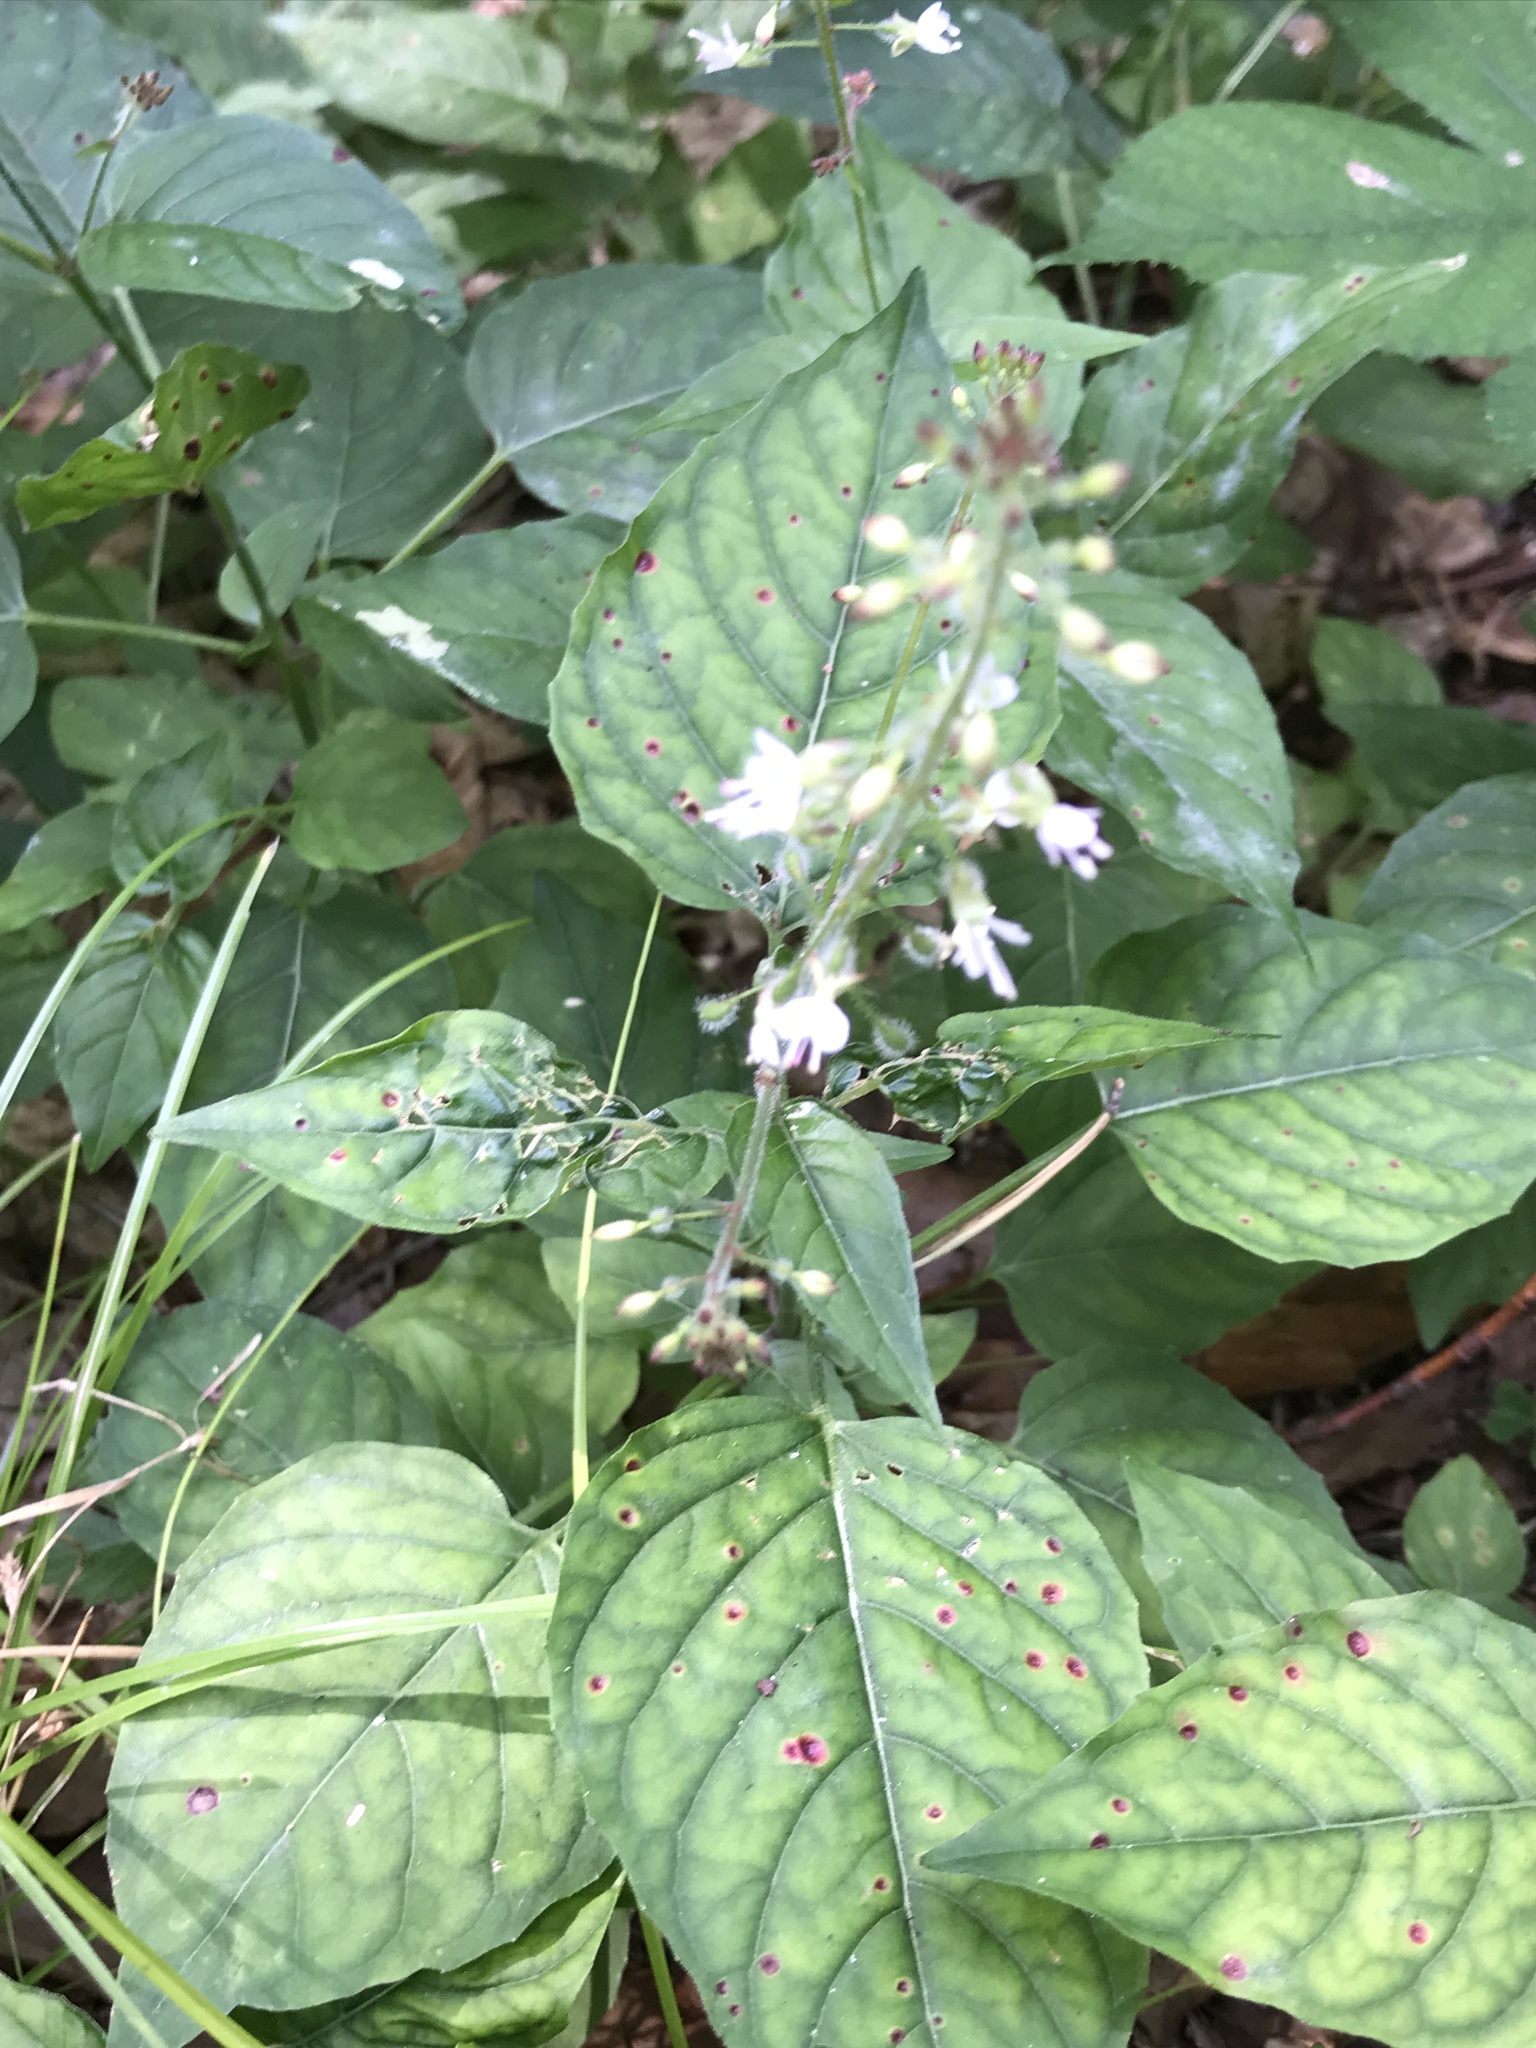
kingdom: Plantae
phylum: Tracheophyta
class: Magnoliopsida
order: Myrtales
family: Onagraceae
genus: Circaea
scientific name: Circaea lutetiana
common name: Enchanter's-nightshade
